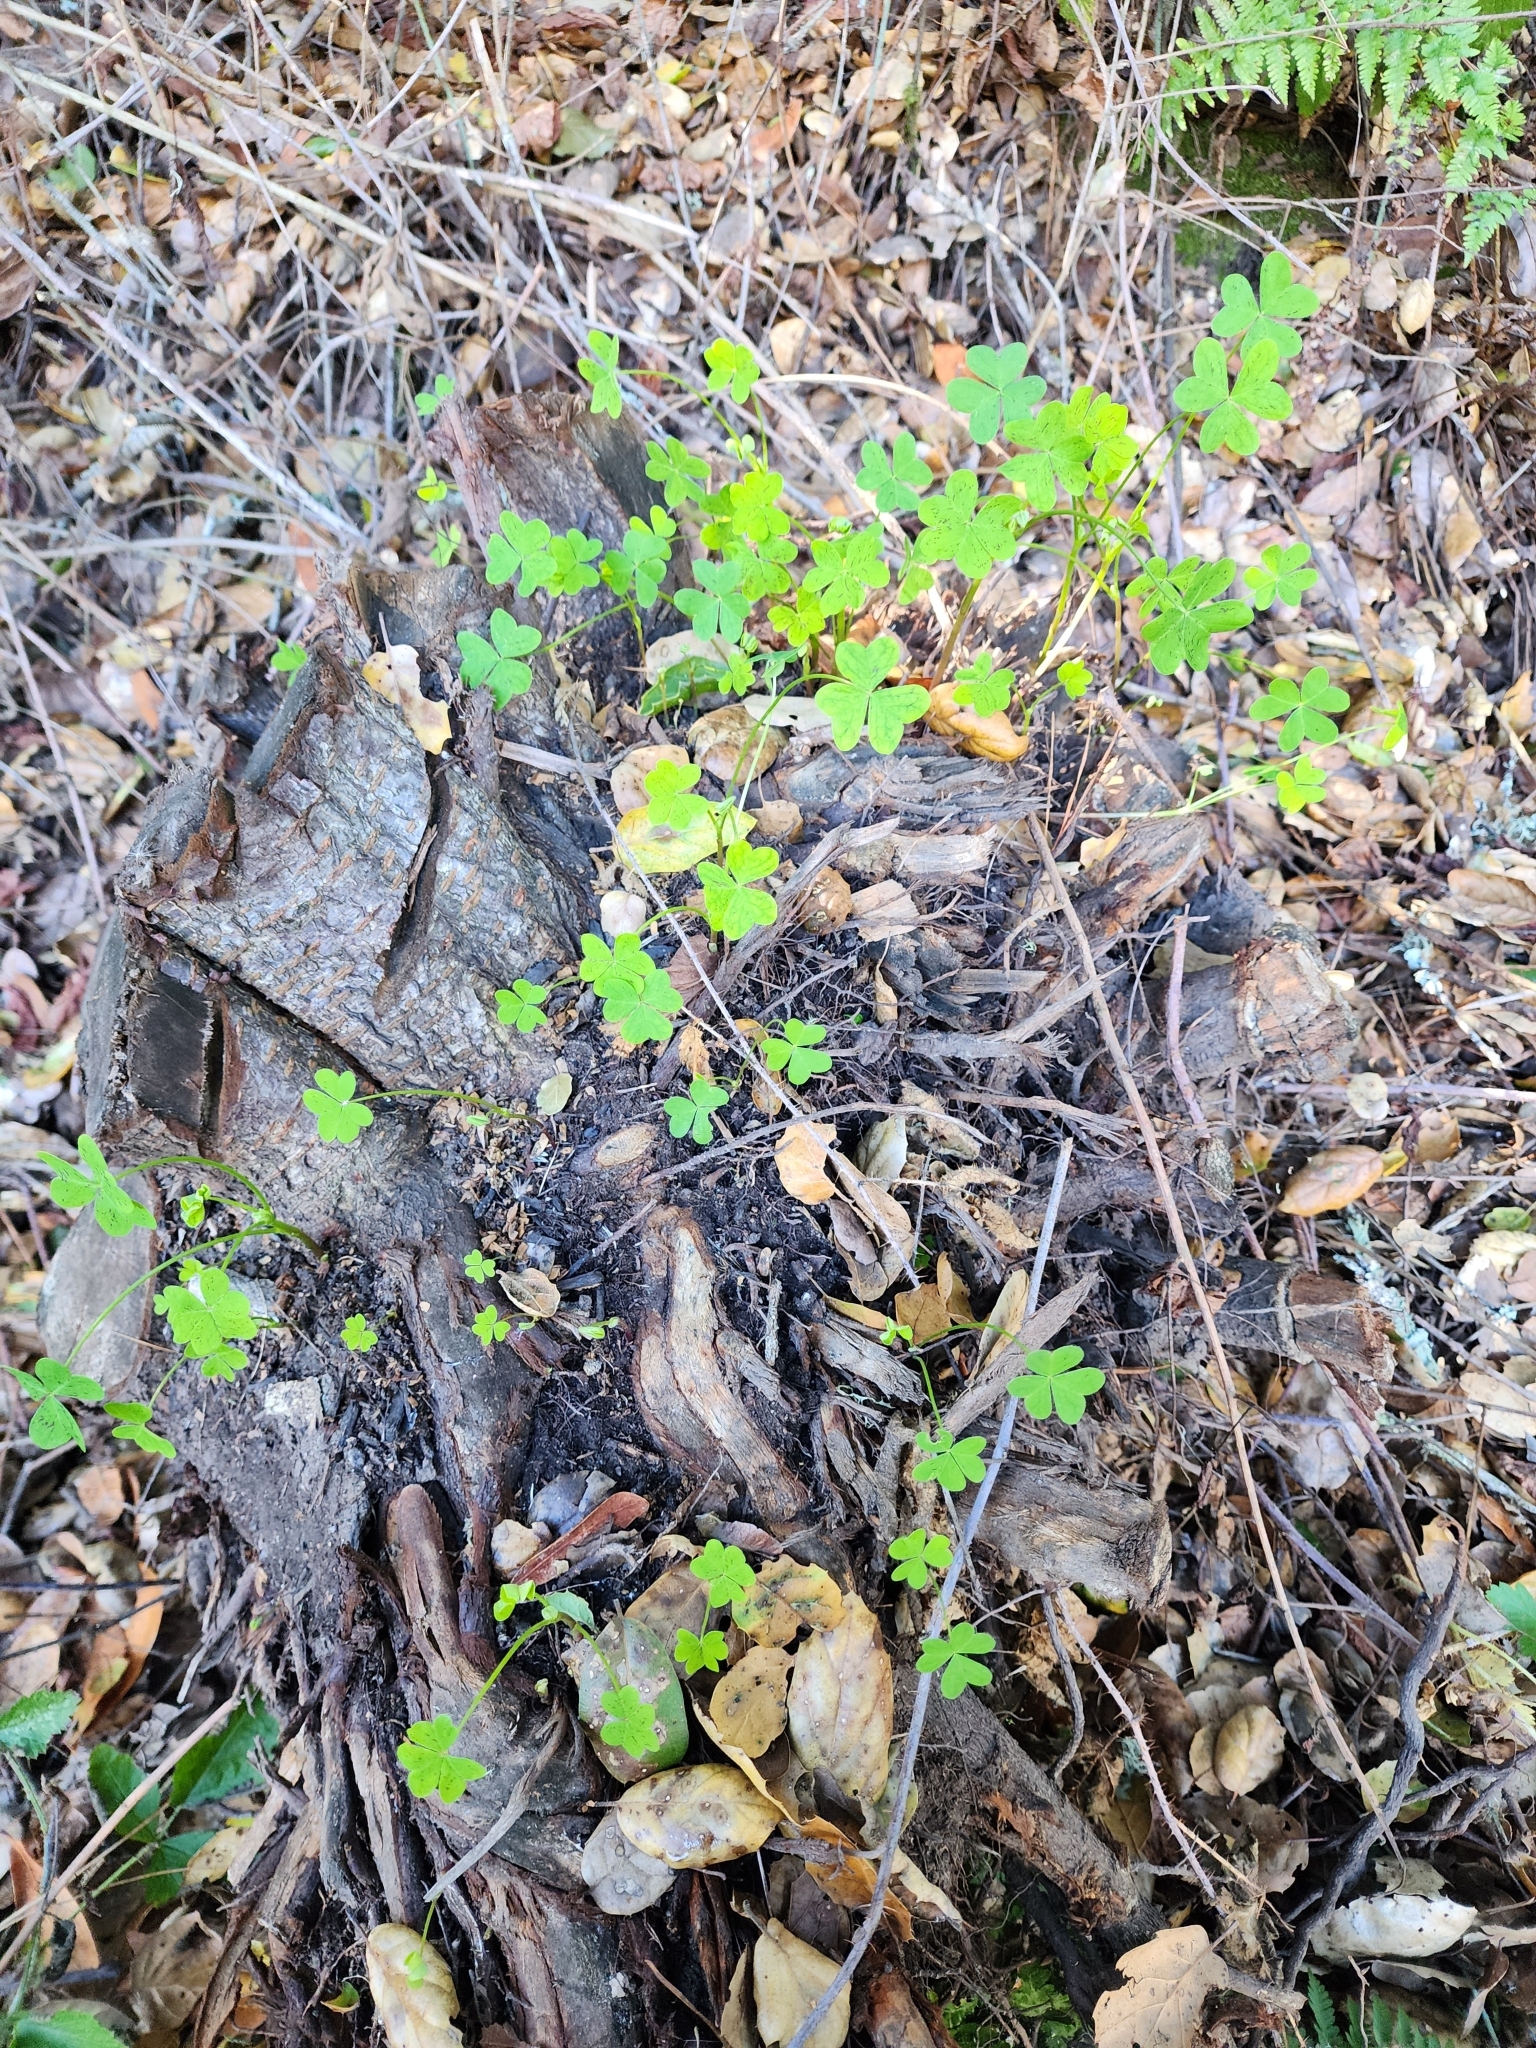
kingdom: Plantae
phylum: Tracheophyta
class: Magnoliopsida
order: Oxalidales
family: Oxalidaceae
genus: Oxalis
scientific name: Oxalis pes-caprae
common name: Bermuda-buttercup
